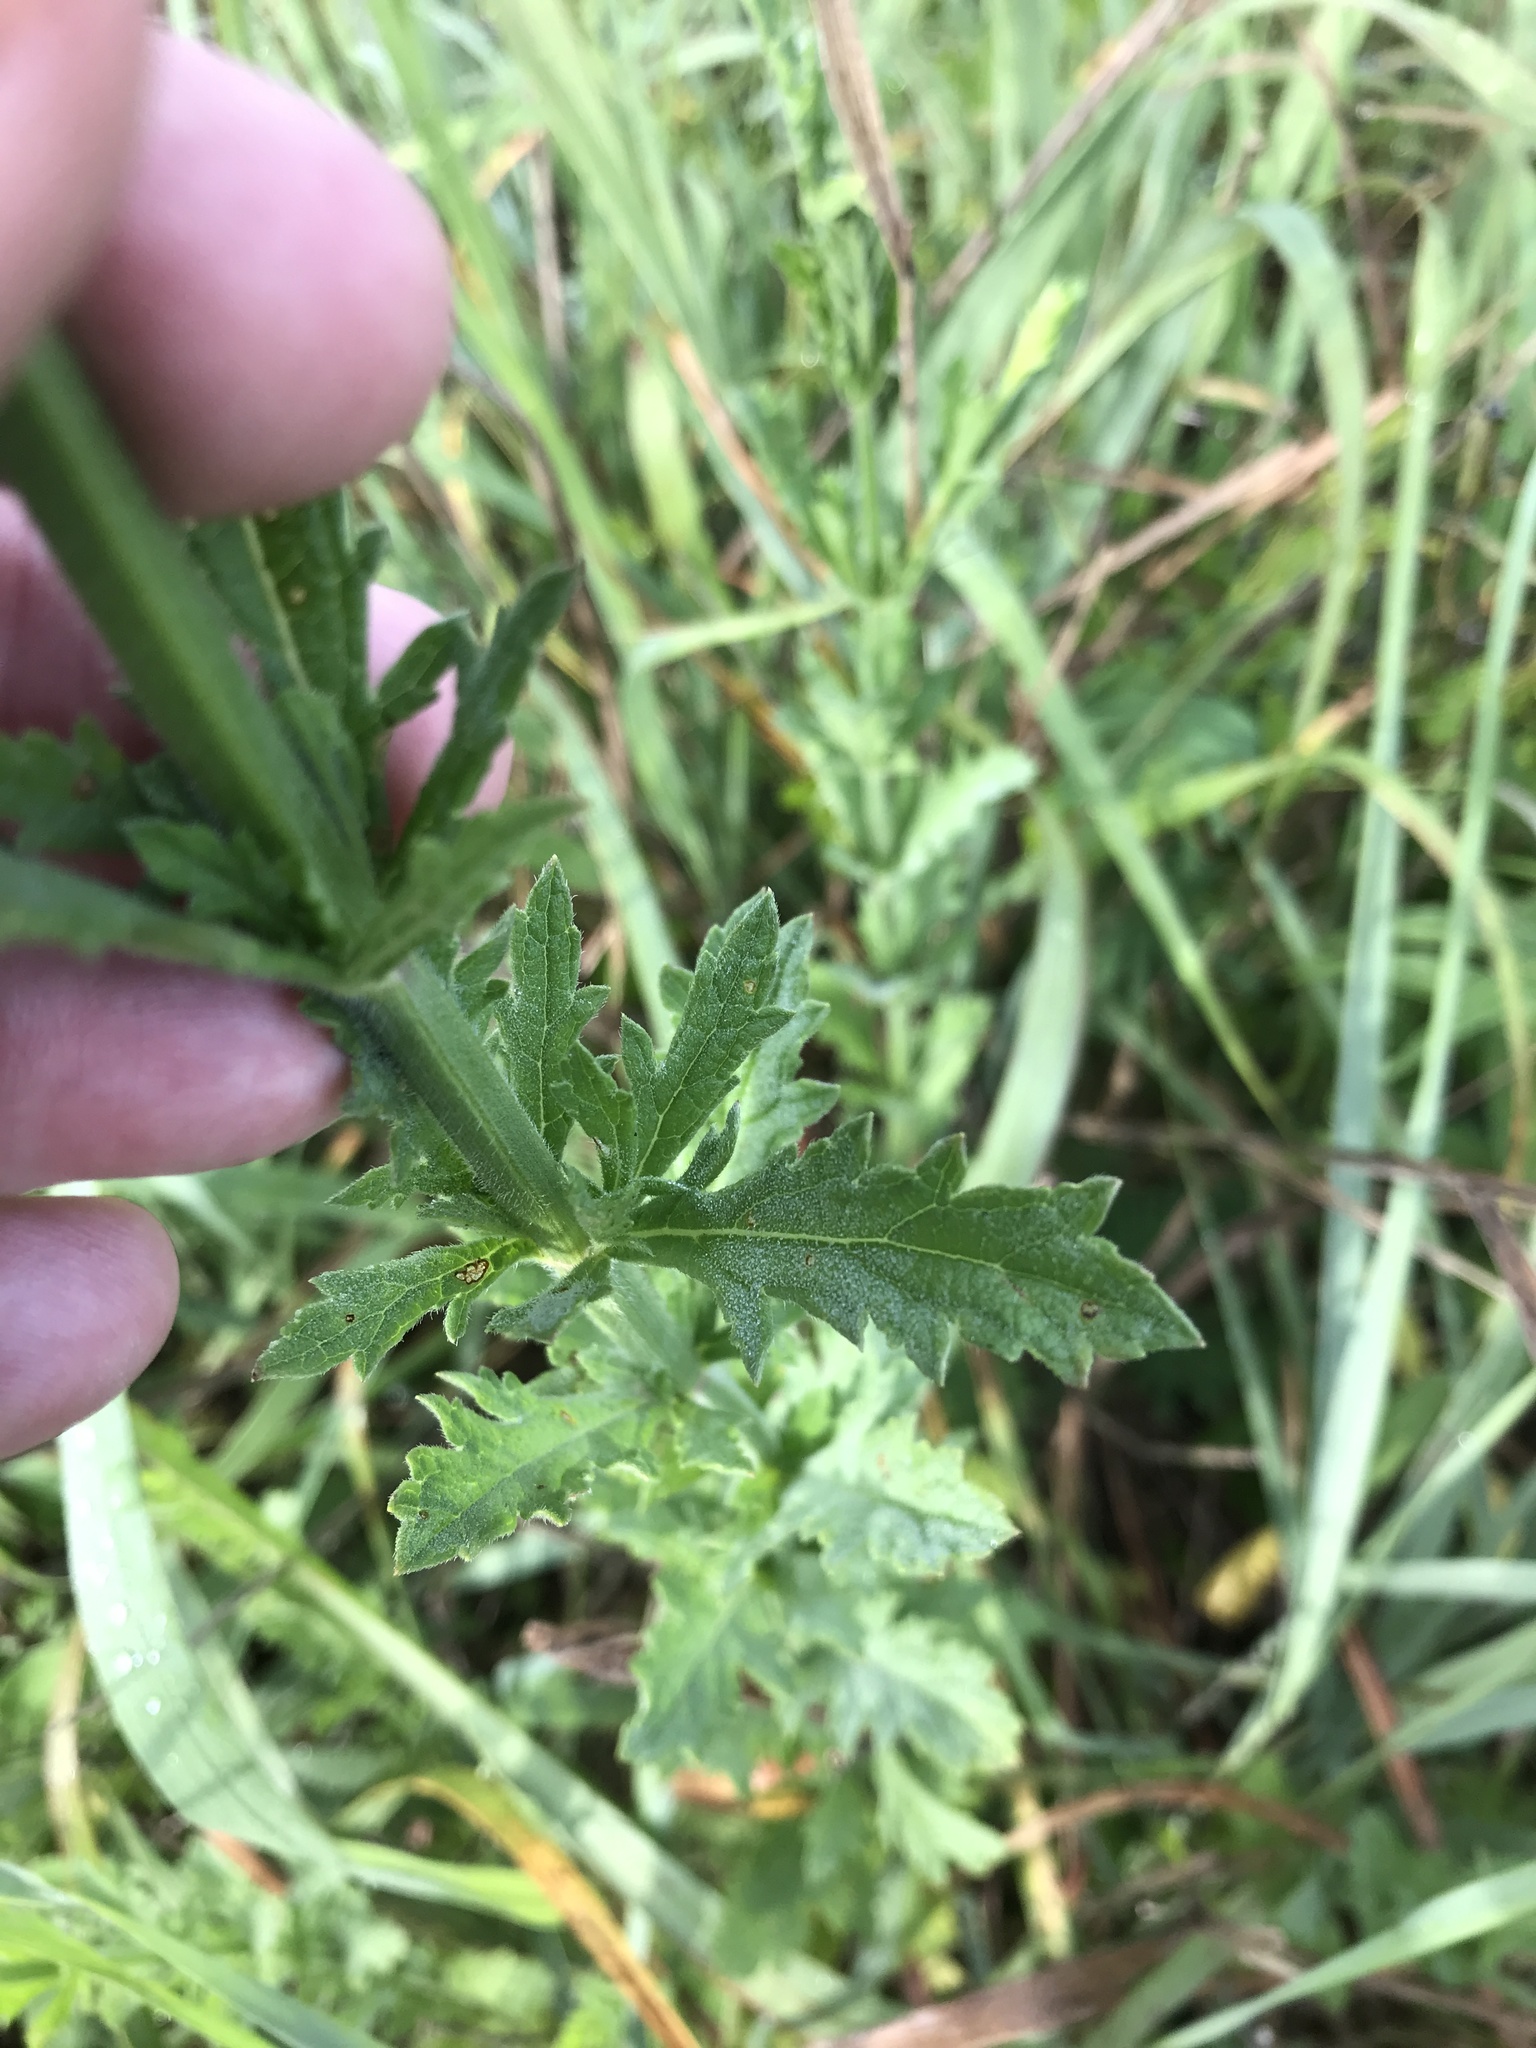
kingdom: Plantae
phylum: Tracheophyta
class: Magnoliopsida
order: Lamiales
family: Verbenaceae
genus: Verbena
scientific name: Verbena xutha
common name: Gulf vervain
